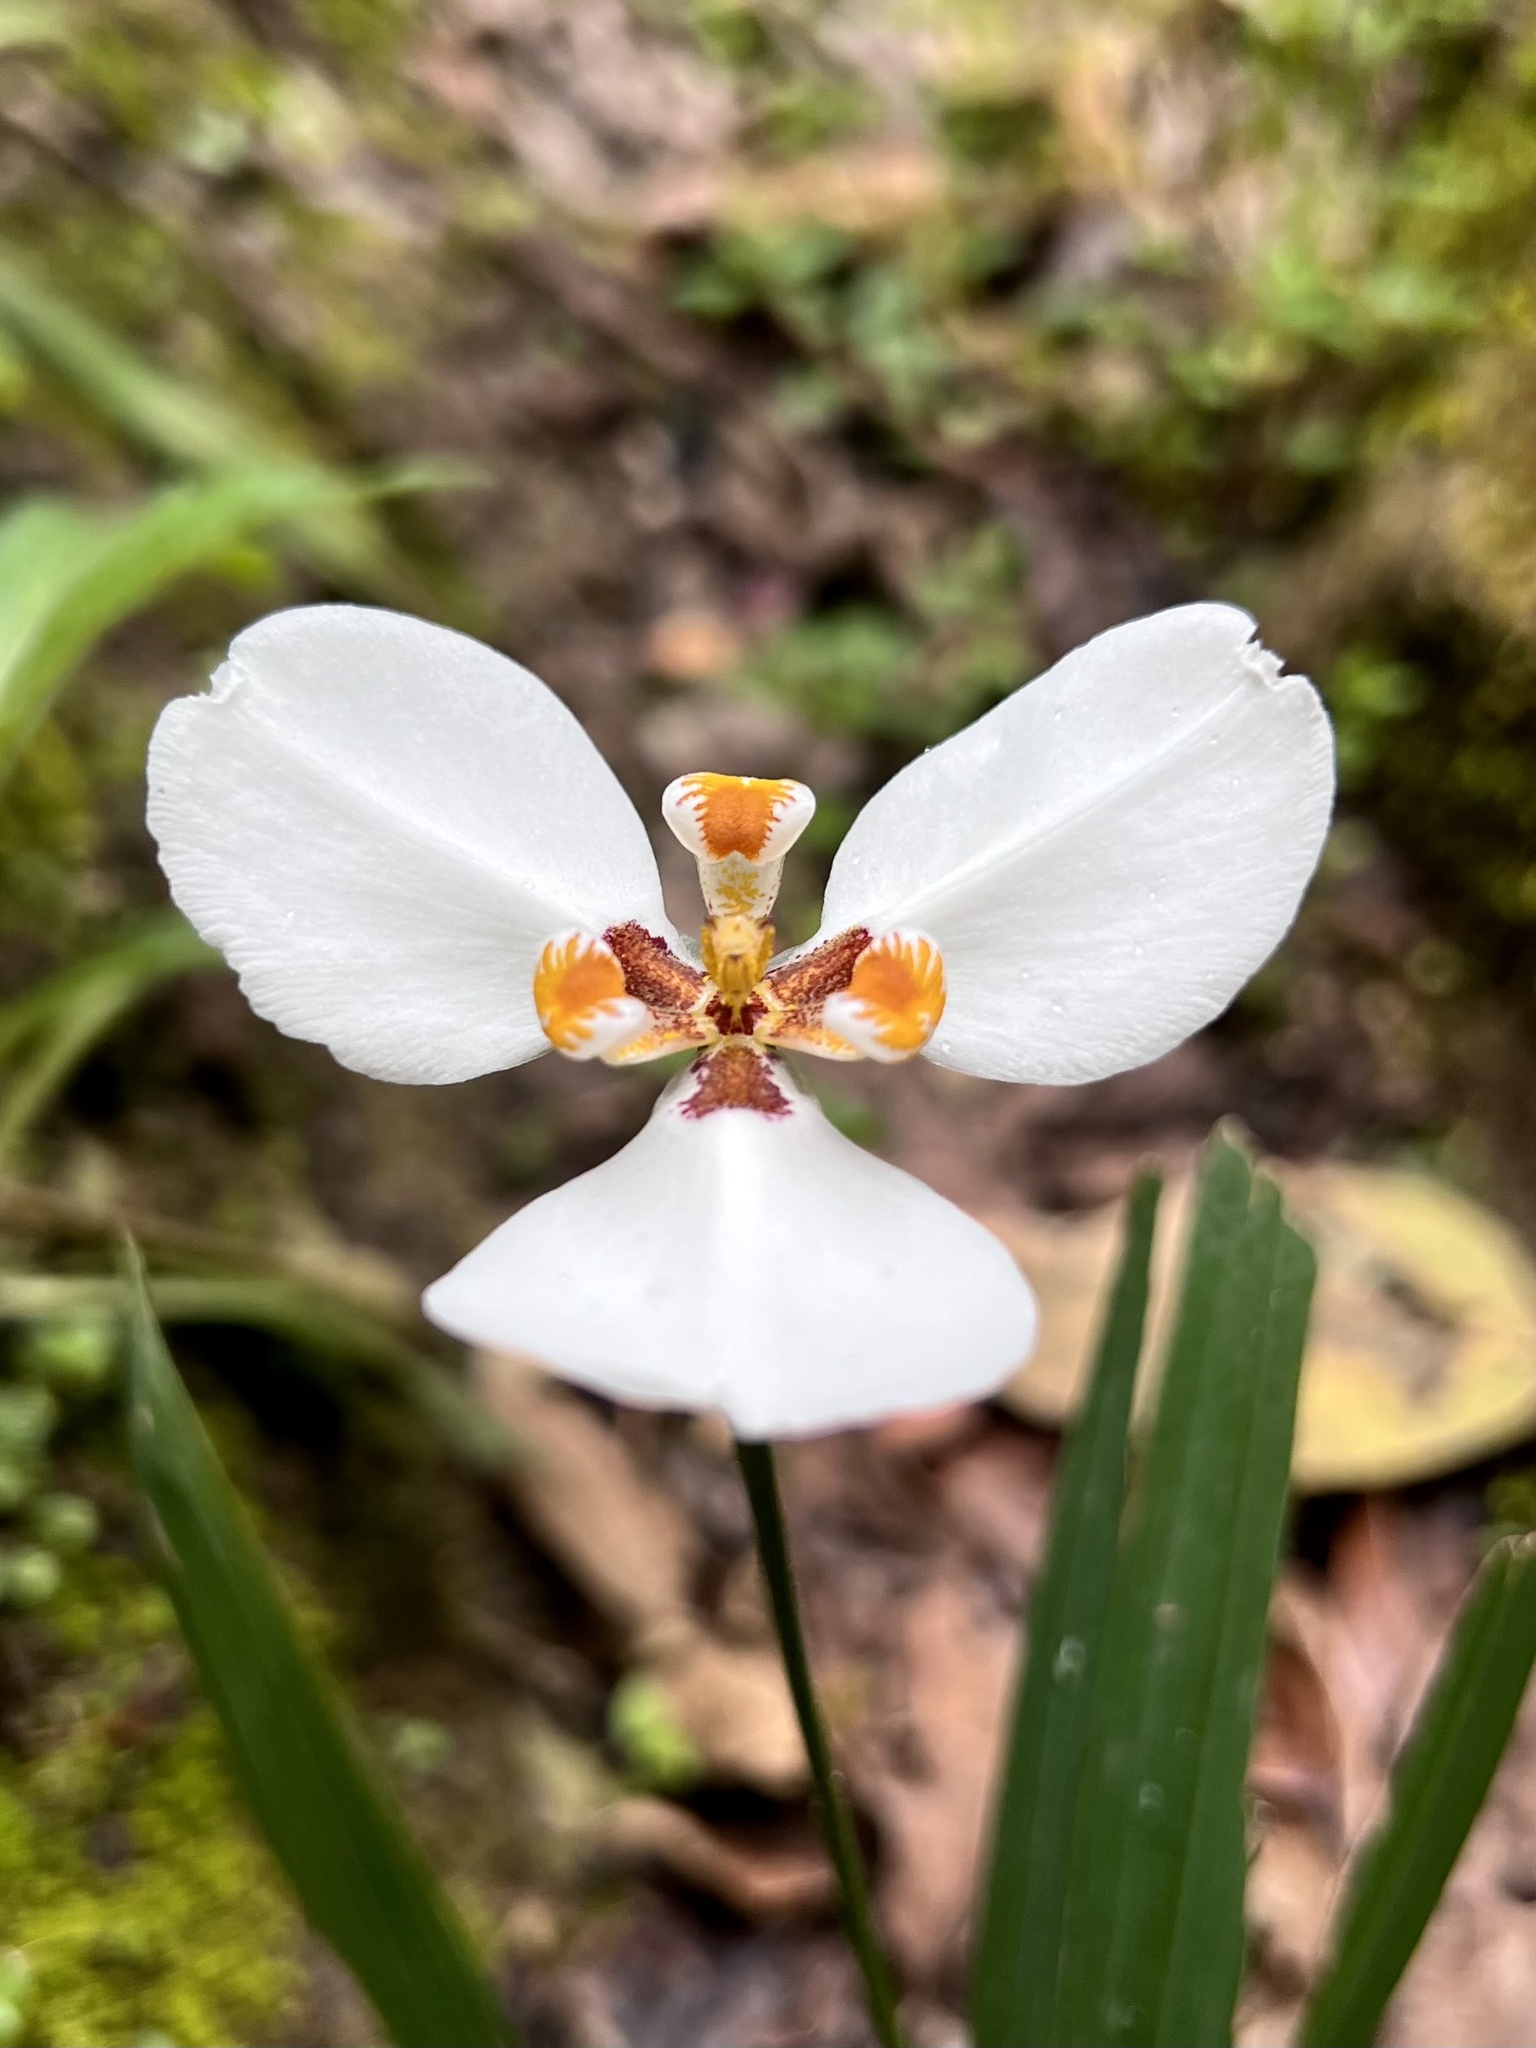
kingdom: Plantae
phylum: Tracheophyta
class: Liliopsida
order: Asparagales
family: Iridaceae
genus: Hesperoxiphion
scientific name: Hesperoxiphion huilense
